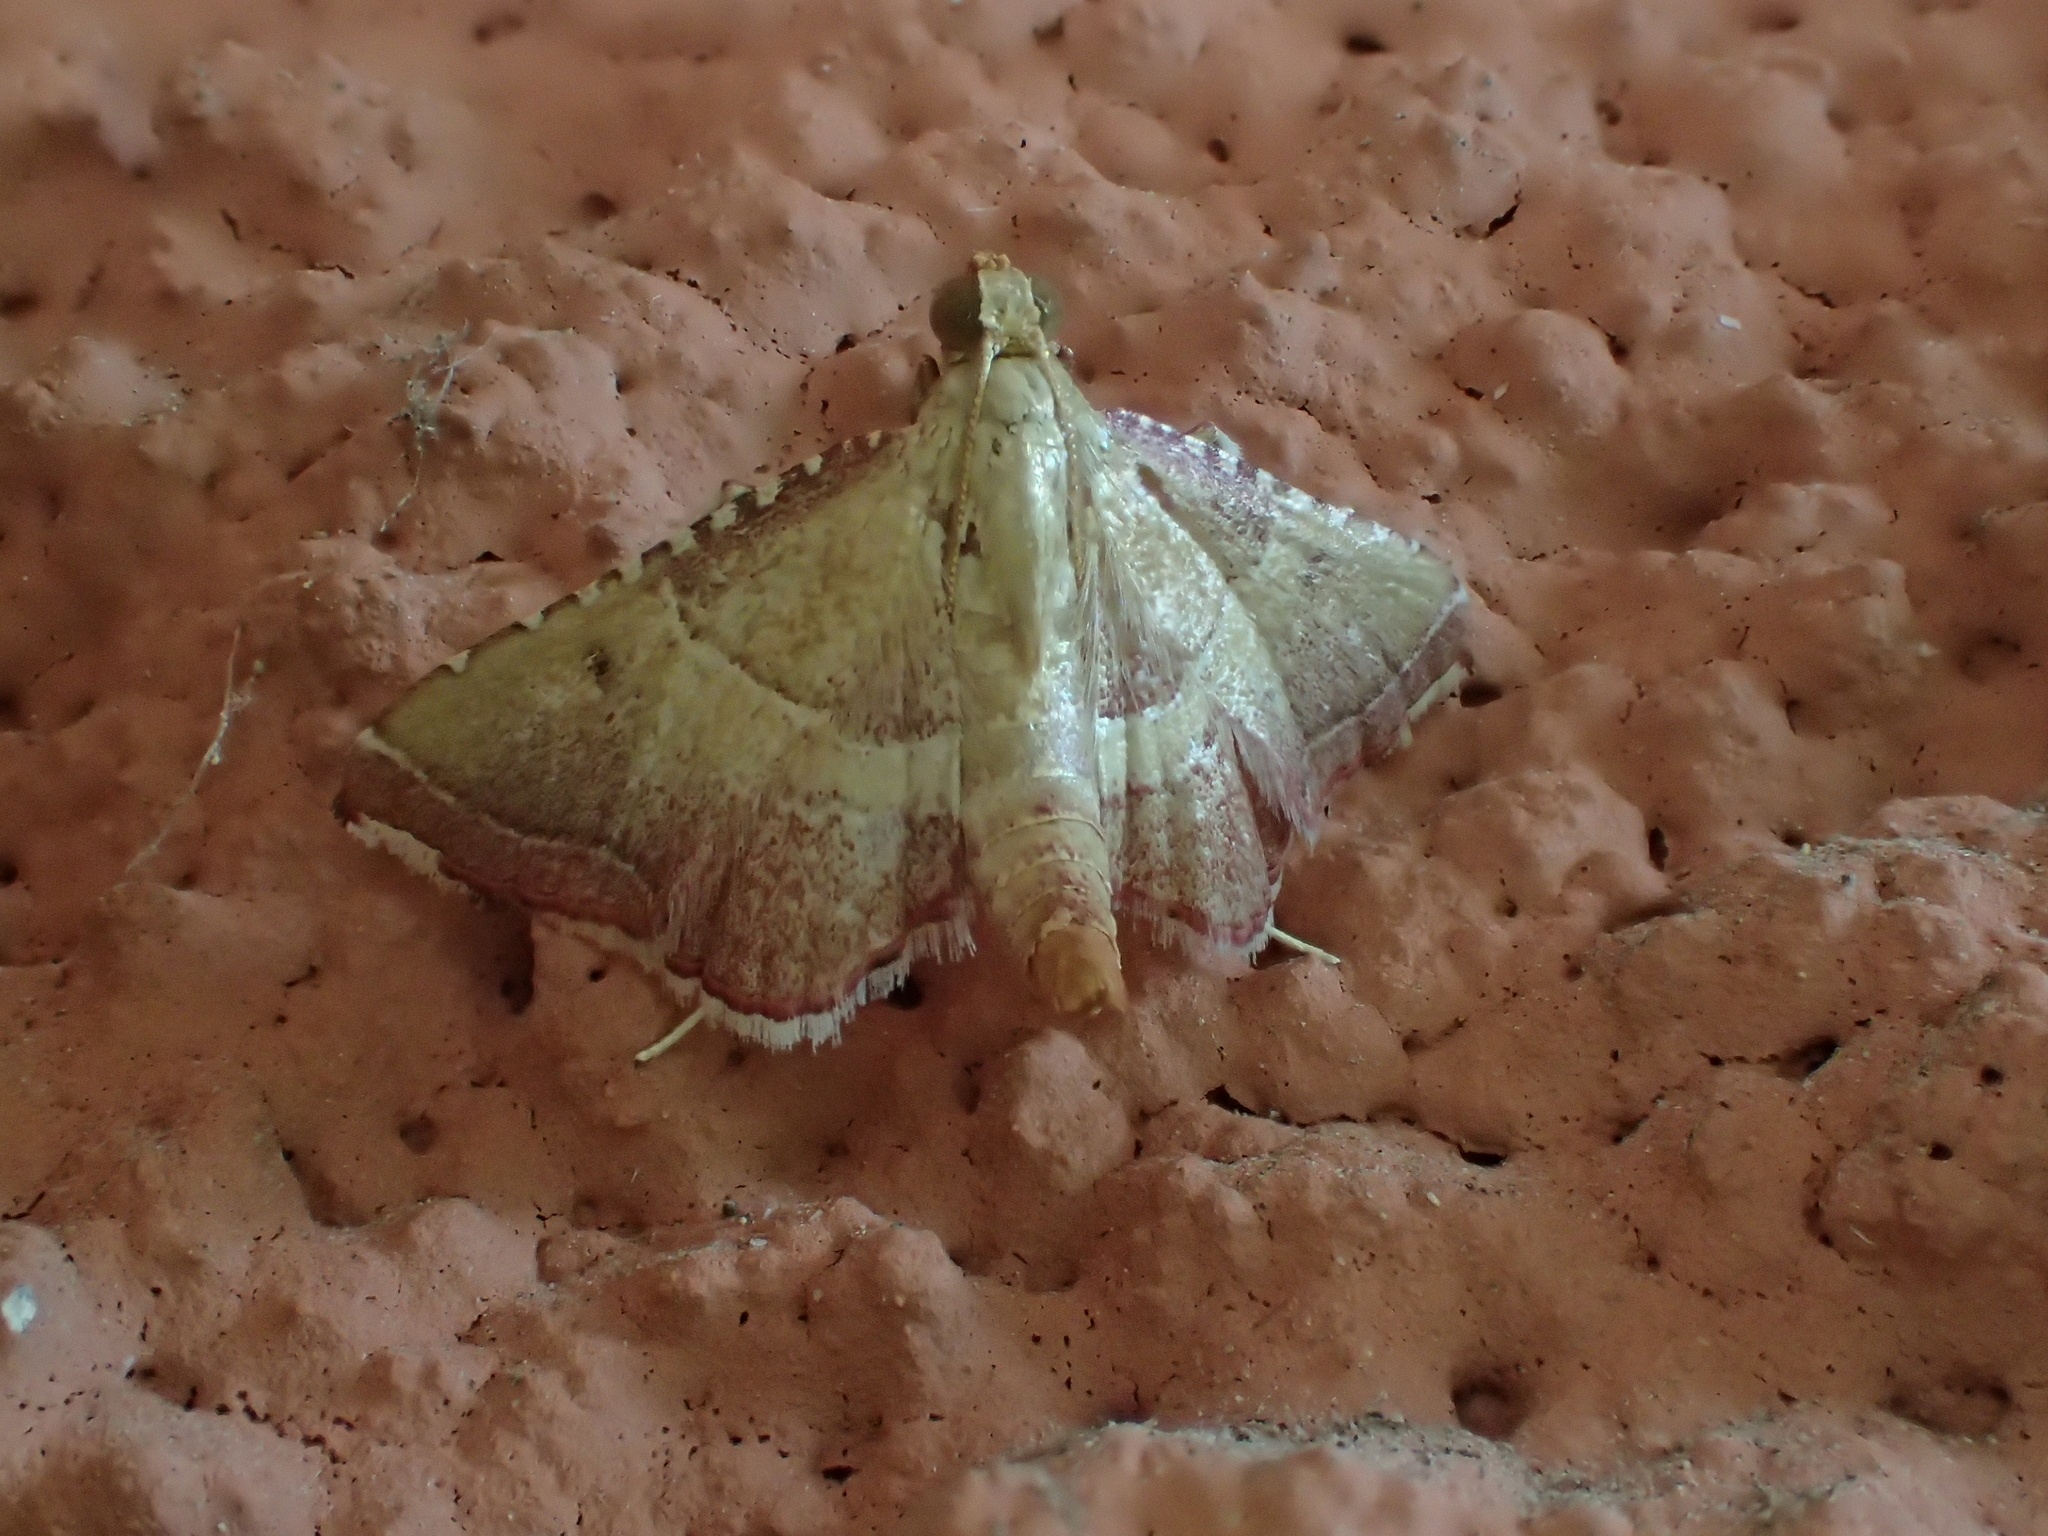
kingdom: Animalia
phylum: Arthropoda
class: Insecta
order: Lepidoptera
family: Pyralidae
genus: Endotricha
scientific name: Endotricha flammealis
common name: Rosy tabby
